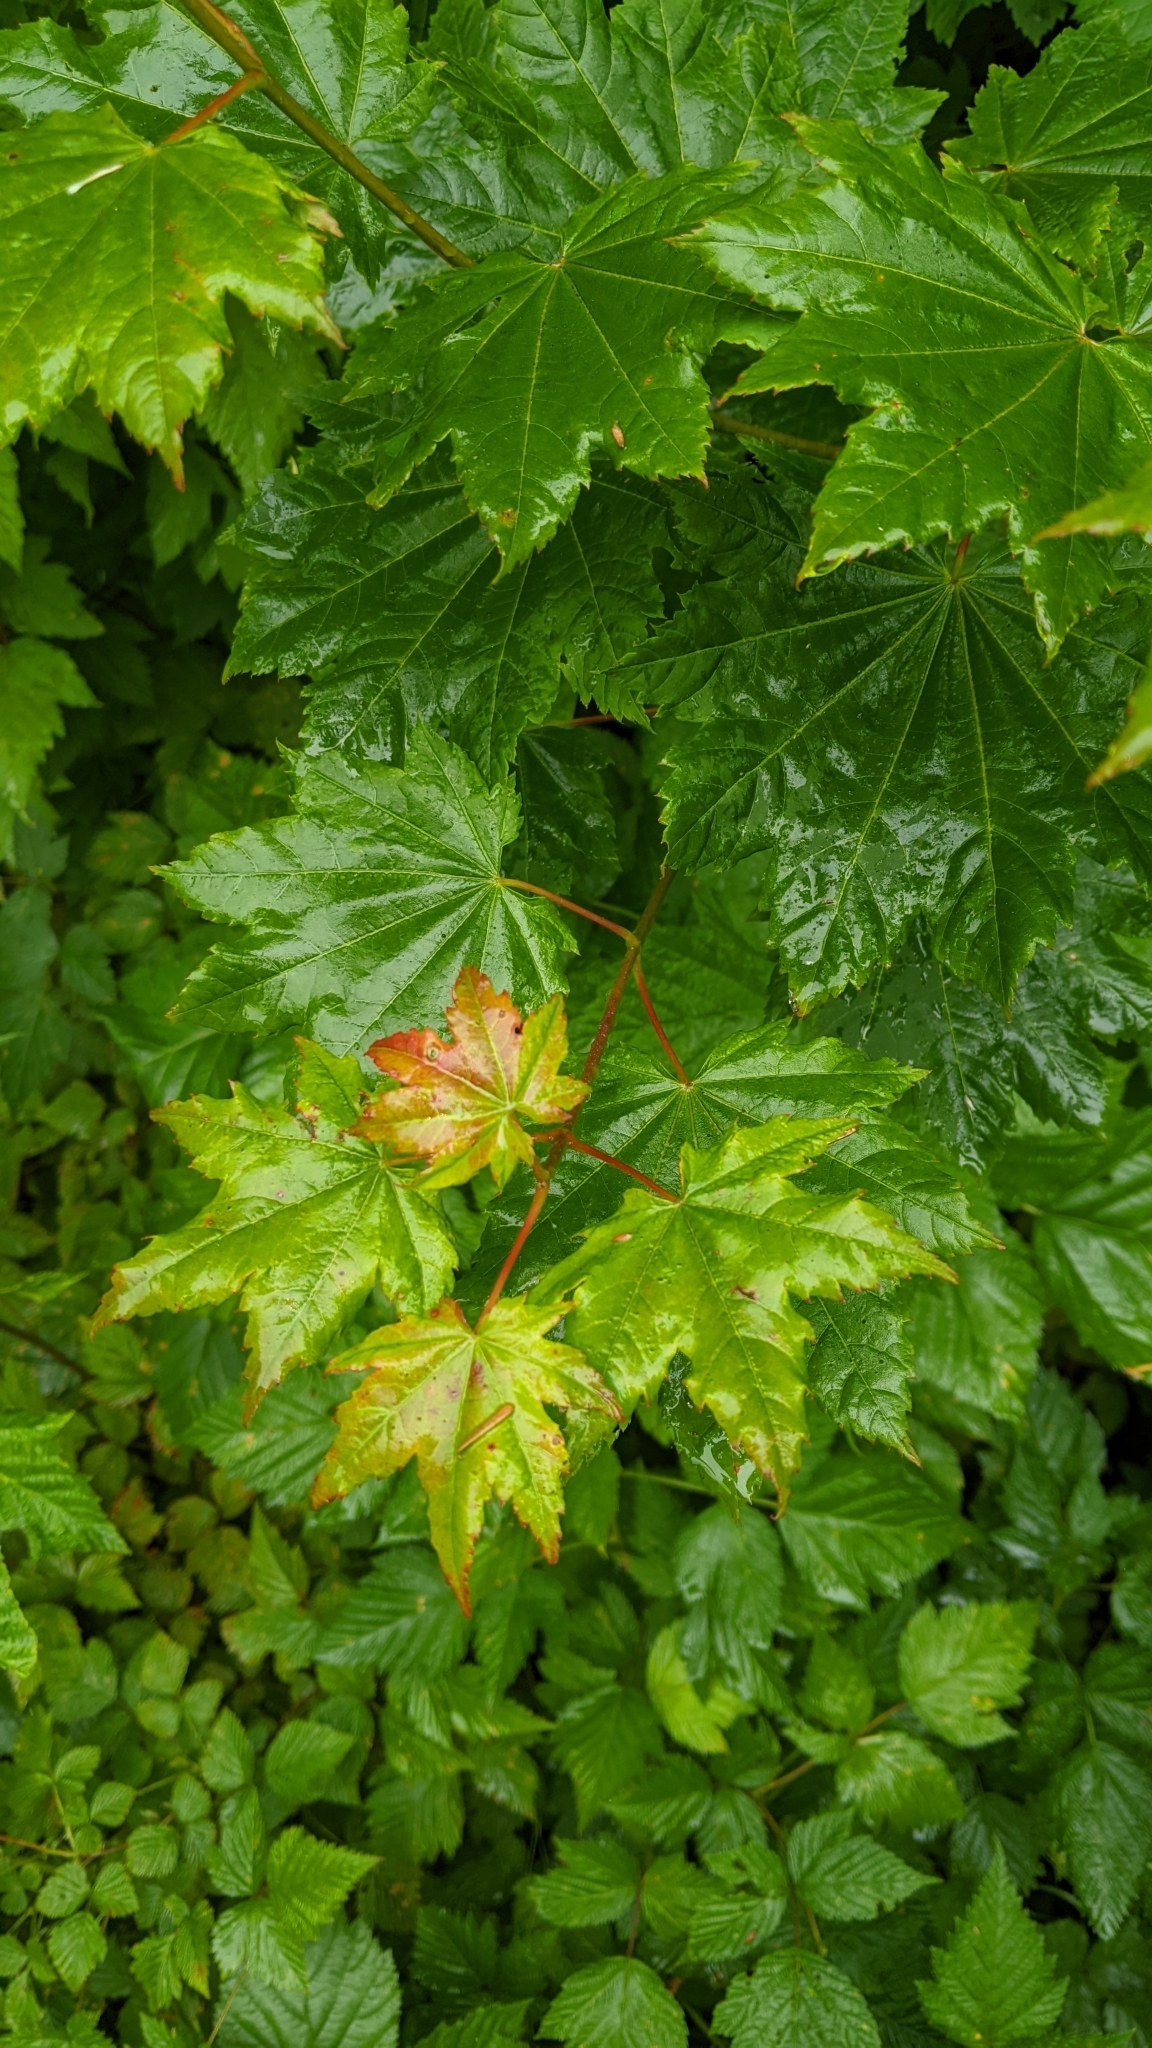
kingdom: Plantae
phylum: Tracheophyta
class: Magnoliopsida
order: Sapindales
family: Sapindaceae
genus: Acer
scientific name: Acer circinatum
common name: Vine maple
